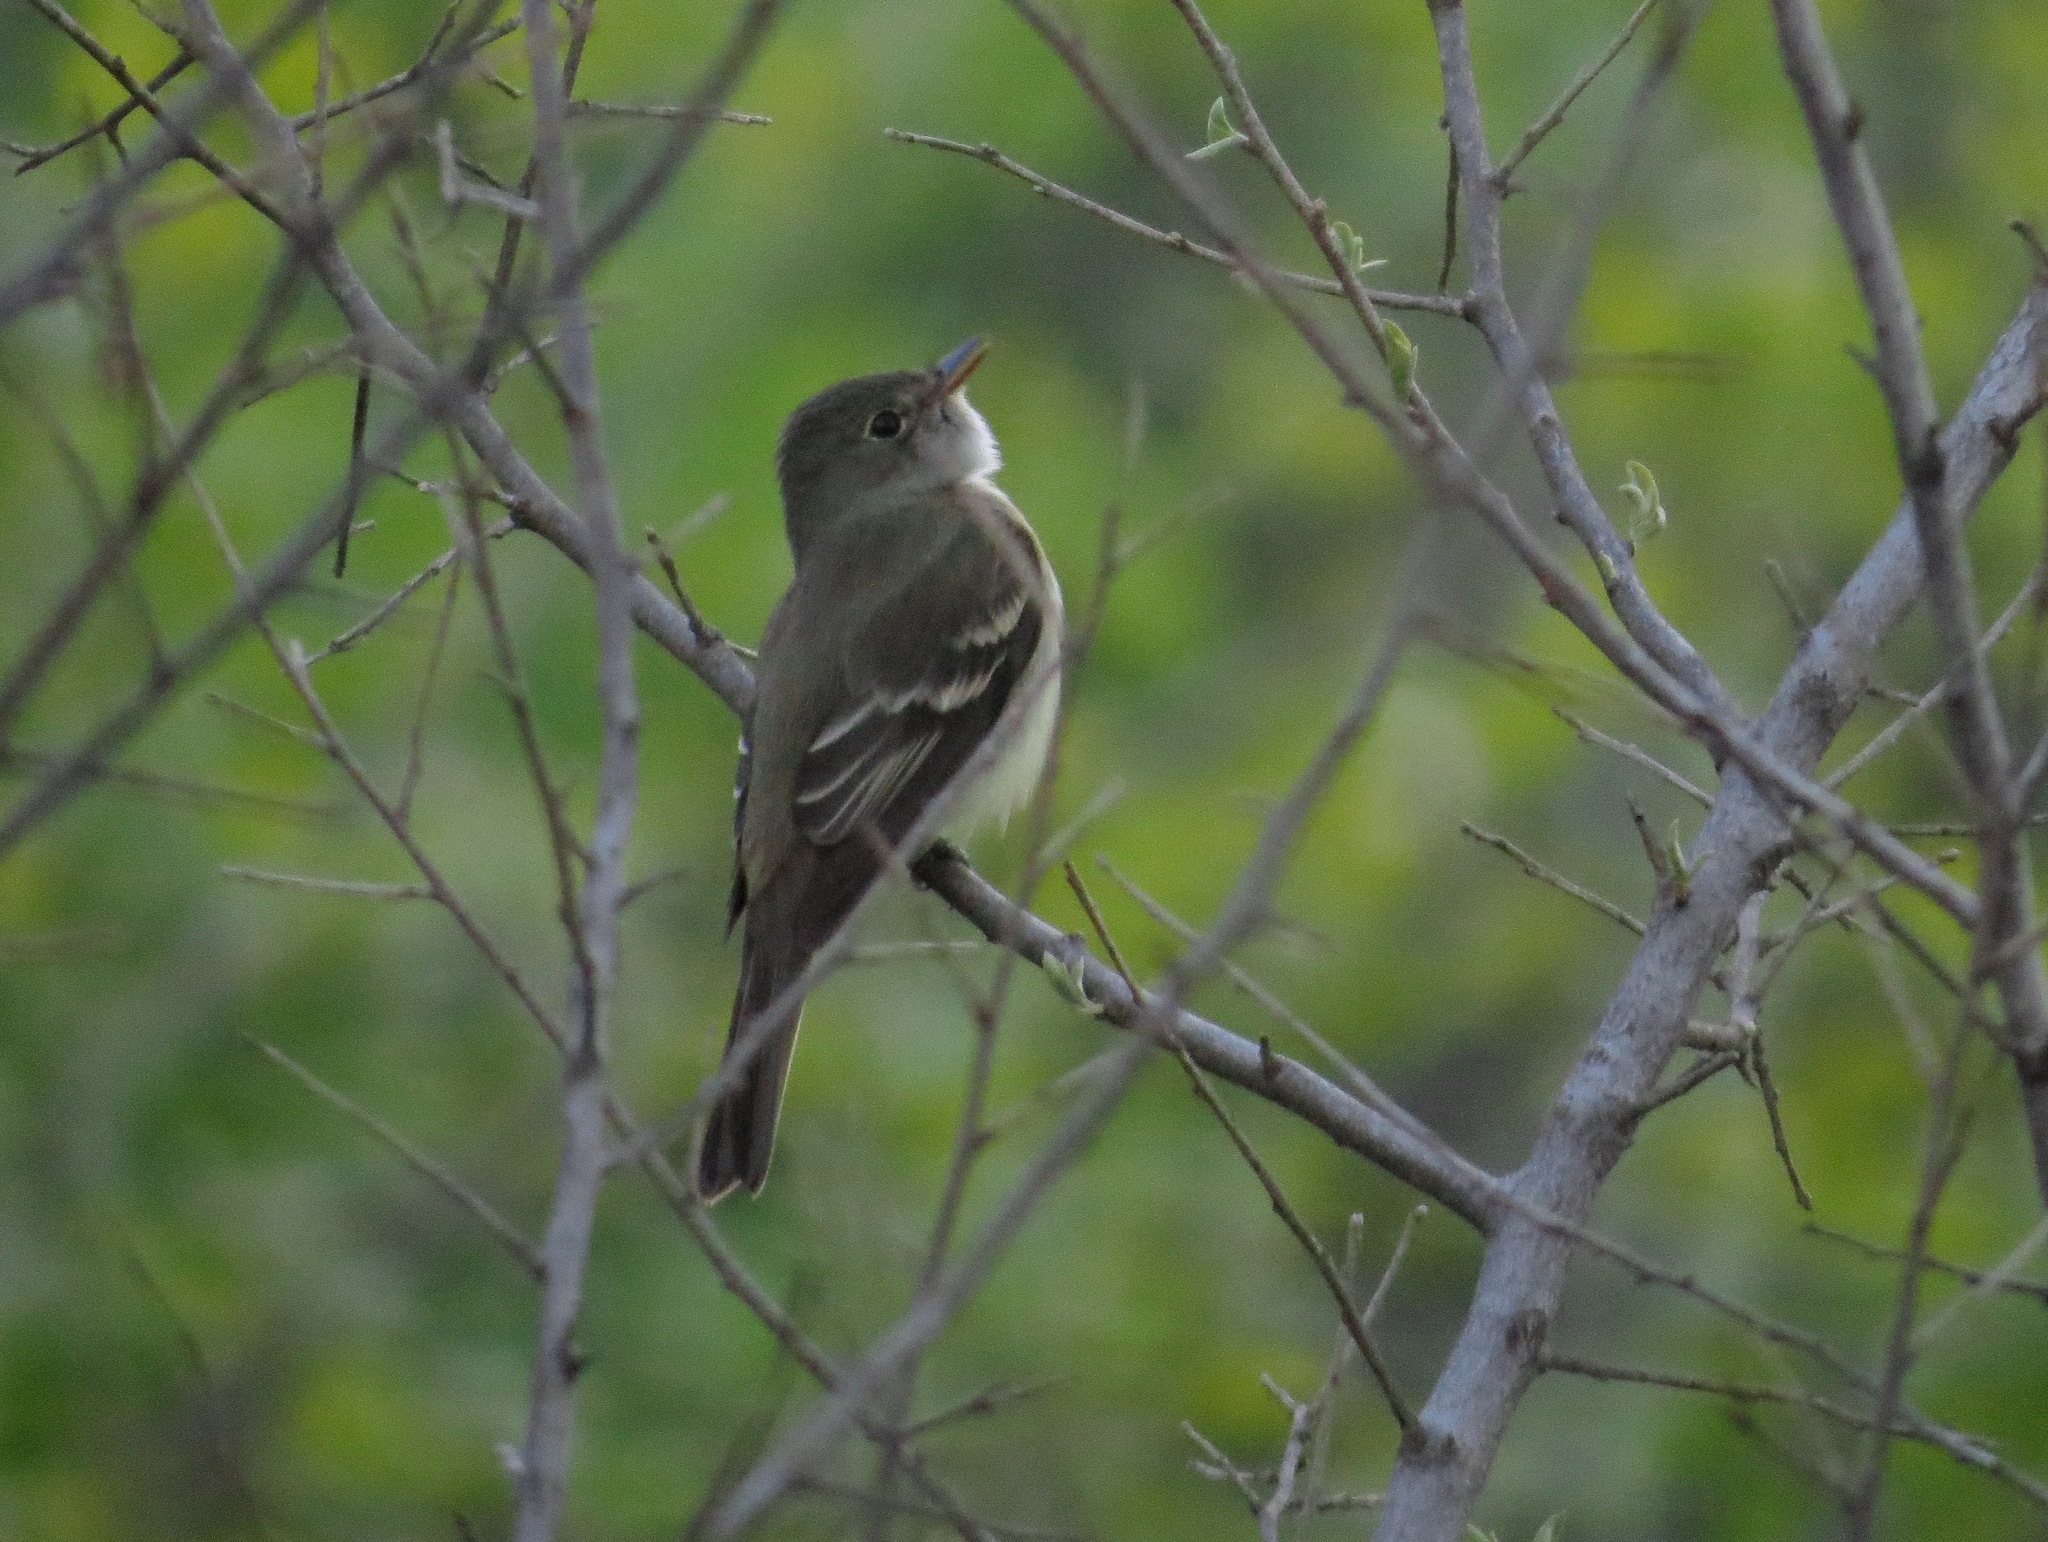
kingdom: Animalia
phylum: Chordata
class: Aves
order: Passeriformes
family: Tyrannidae
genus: Empidonax
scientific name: Empidonax alnorum
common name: Alder flycatcher
